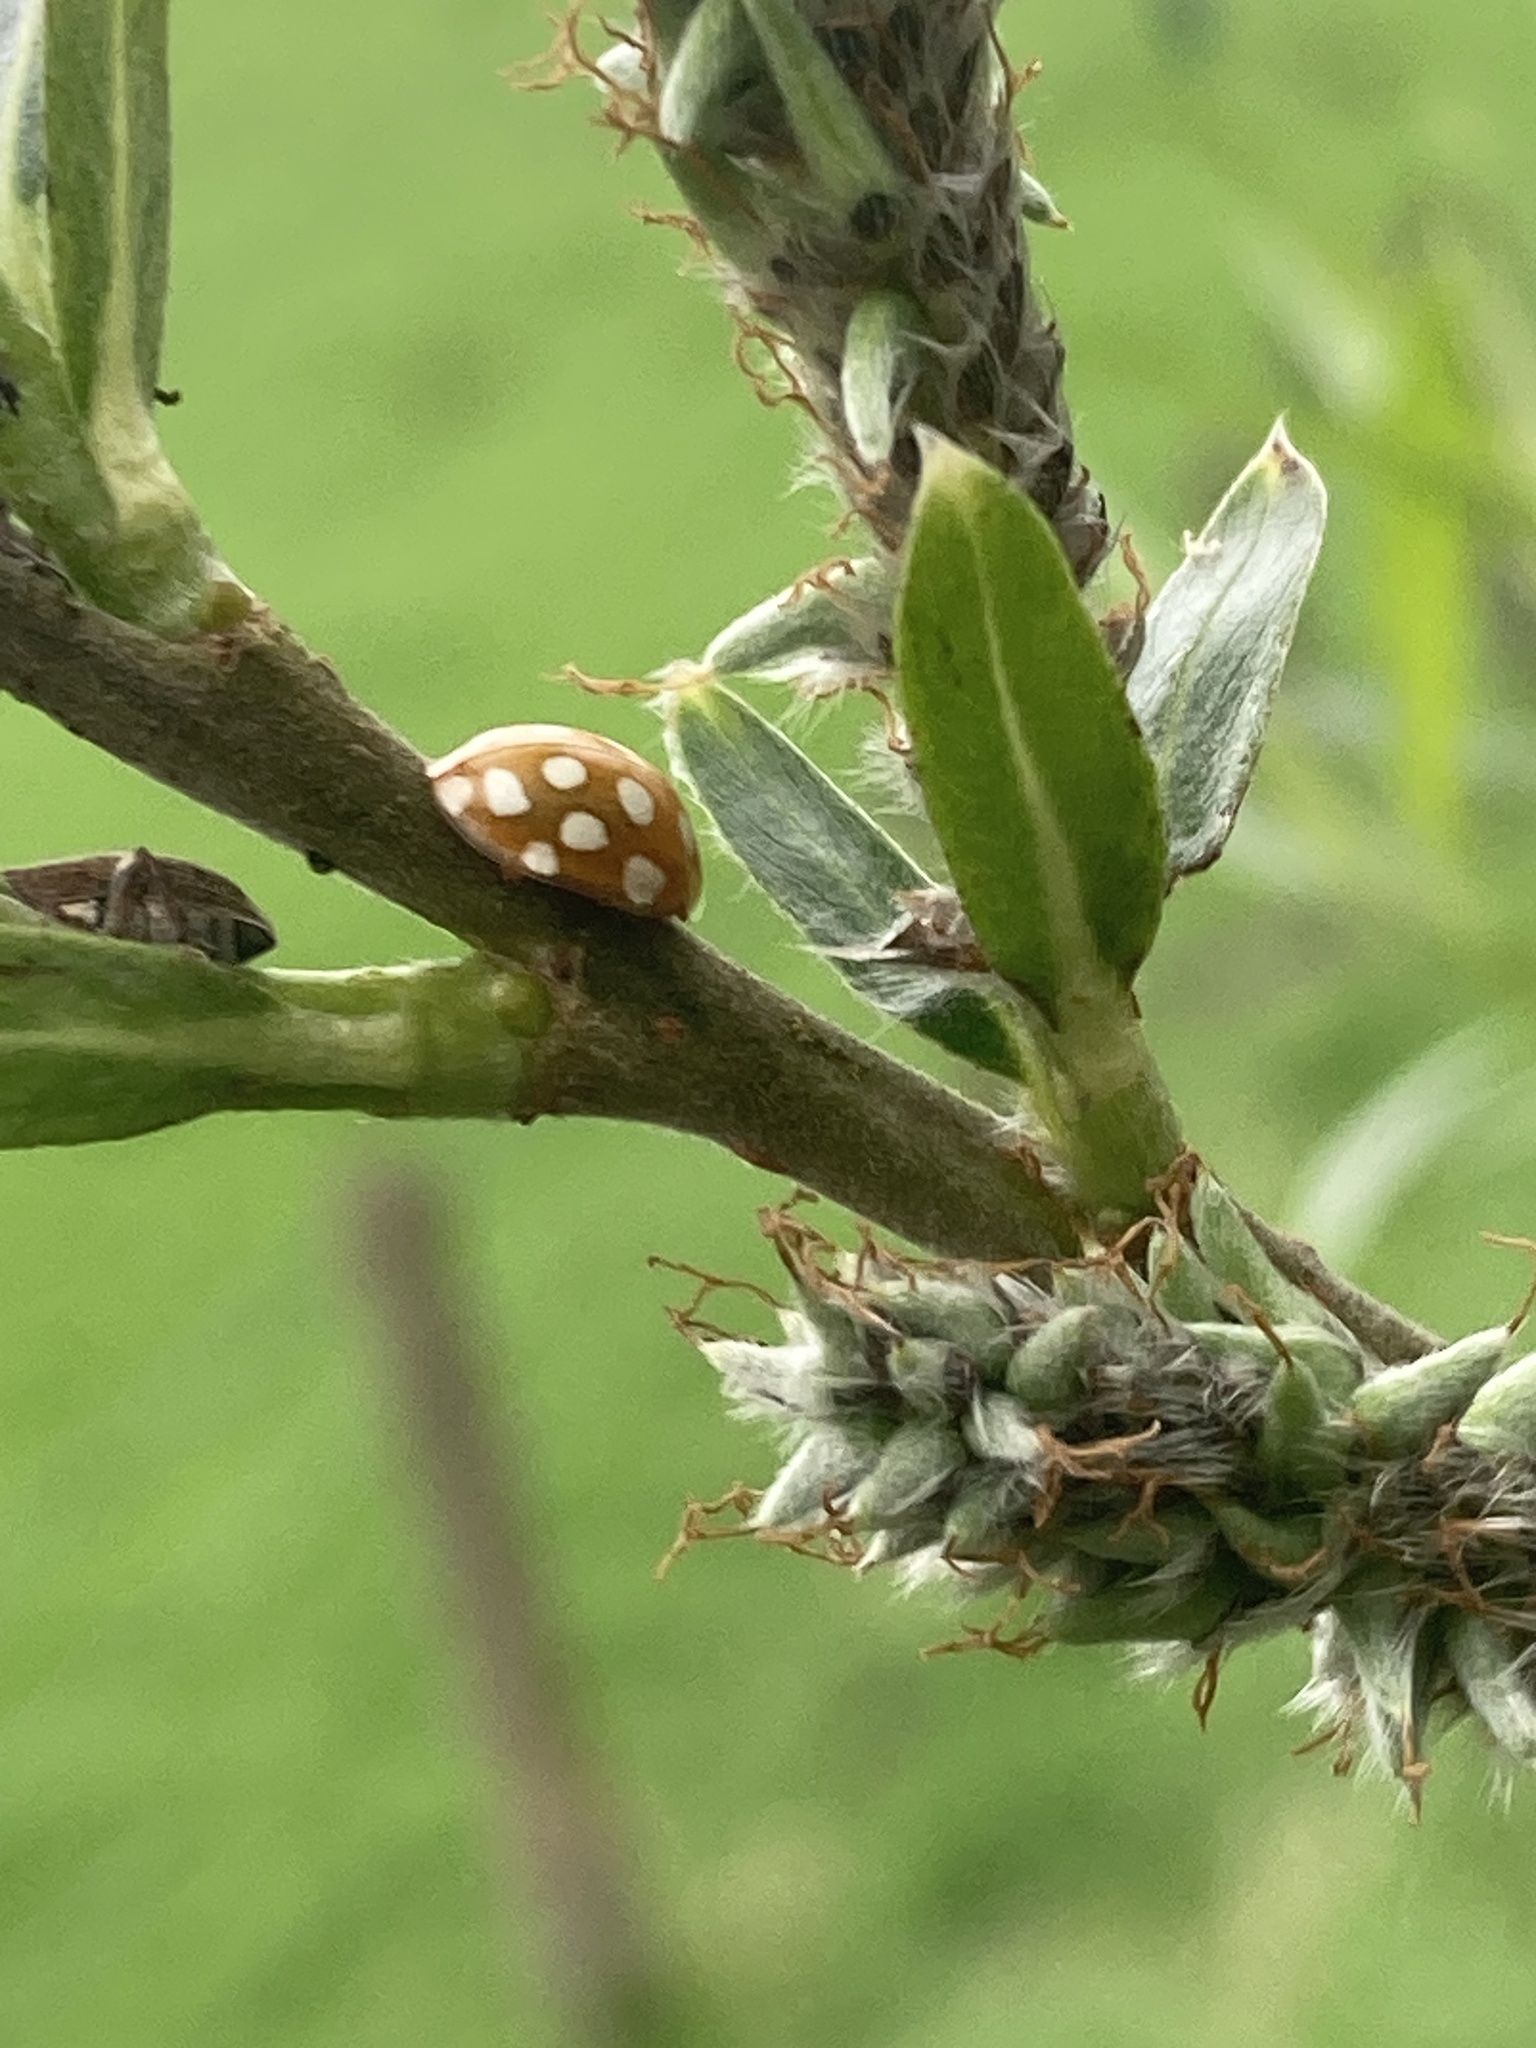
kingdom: Animalia
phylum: Arthropoda
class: Insecta
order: Coleoptera
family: Coccinellidae
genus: Halyzia
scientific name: Halyzia sedecimguttata
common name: Orange ladybird
